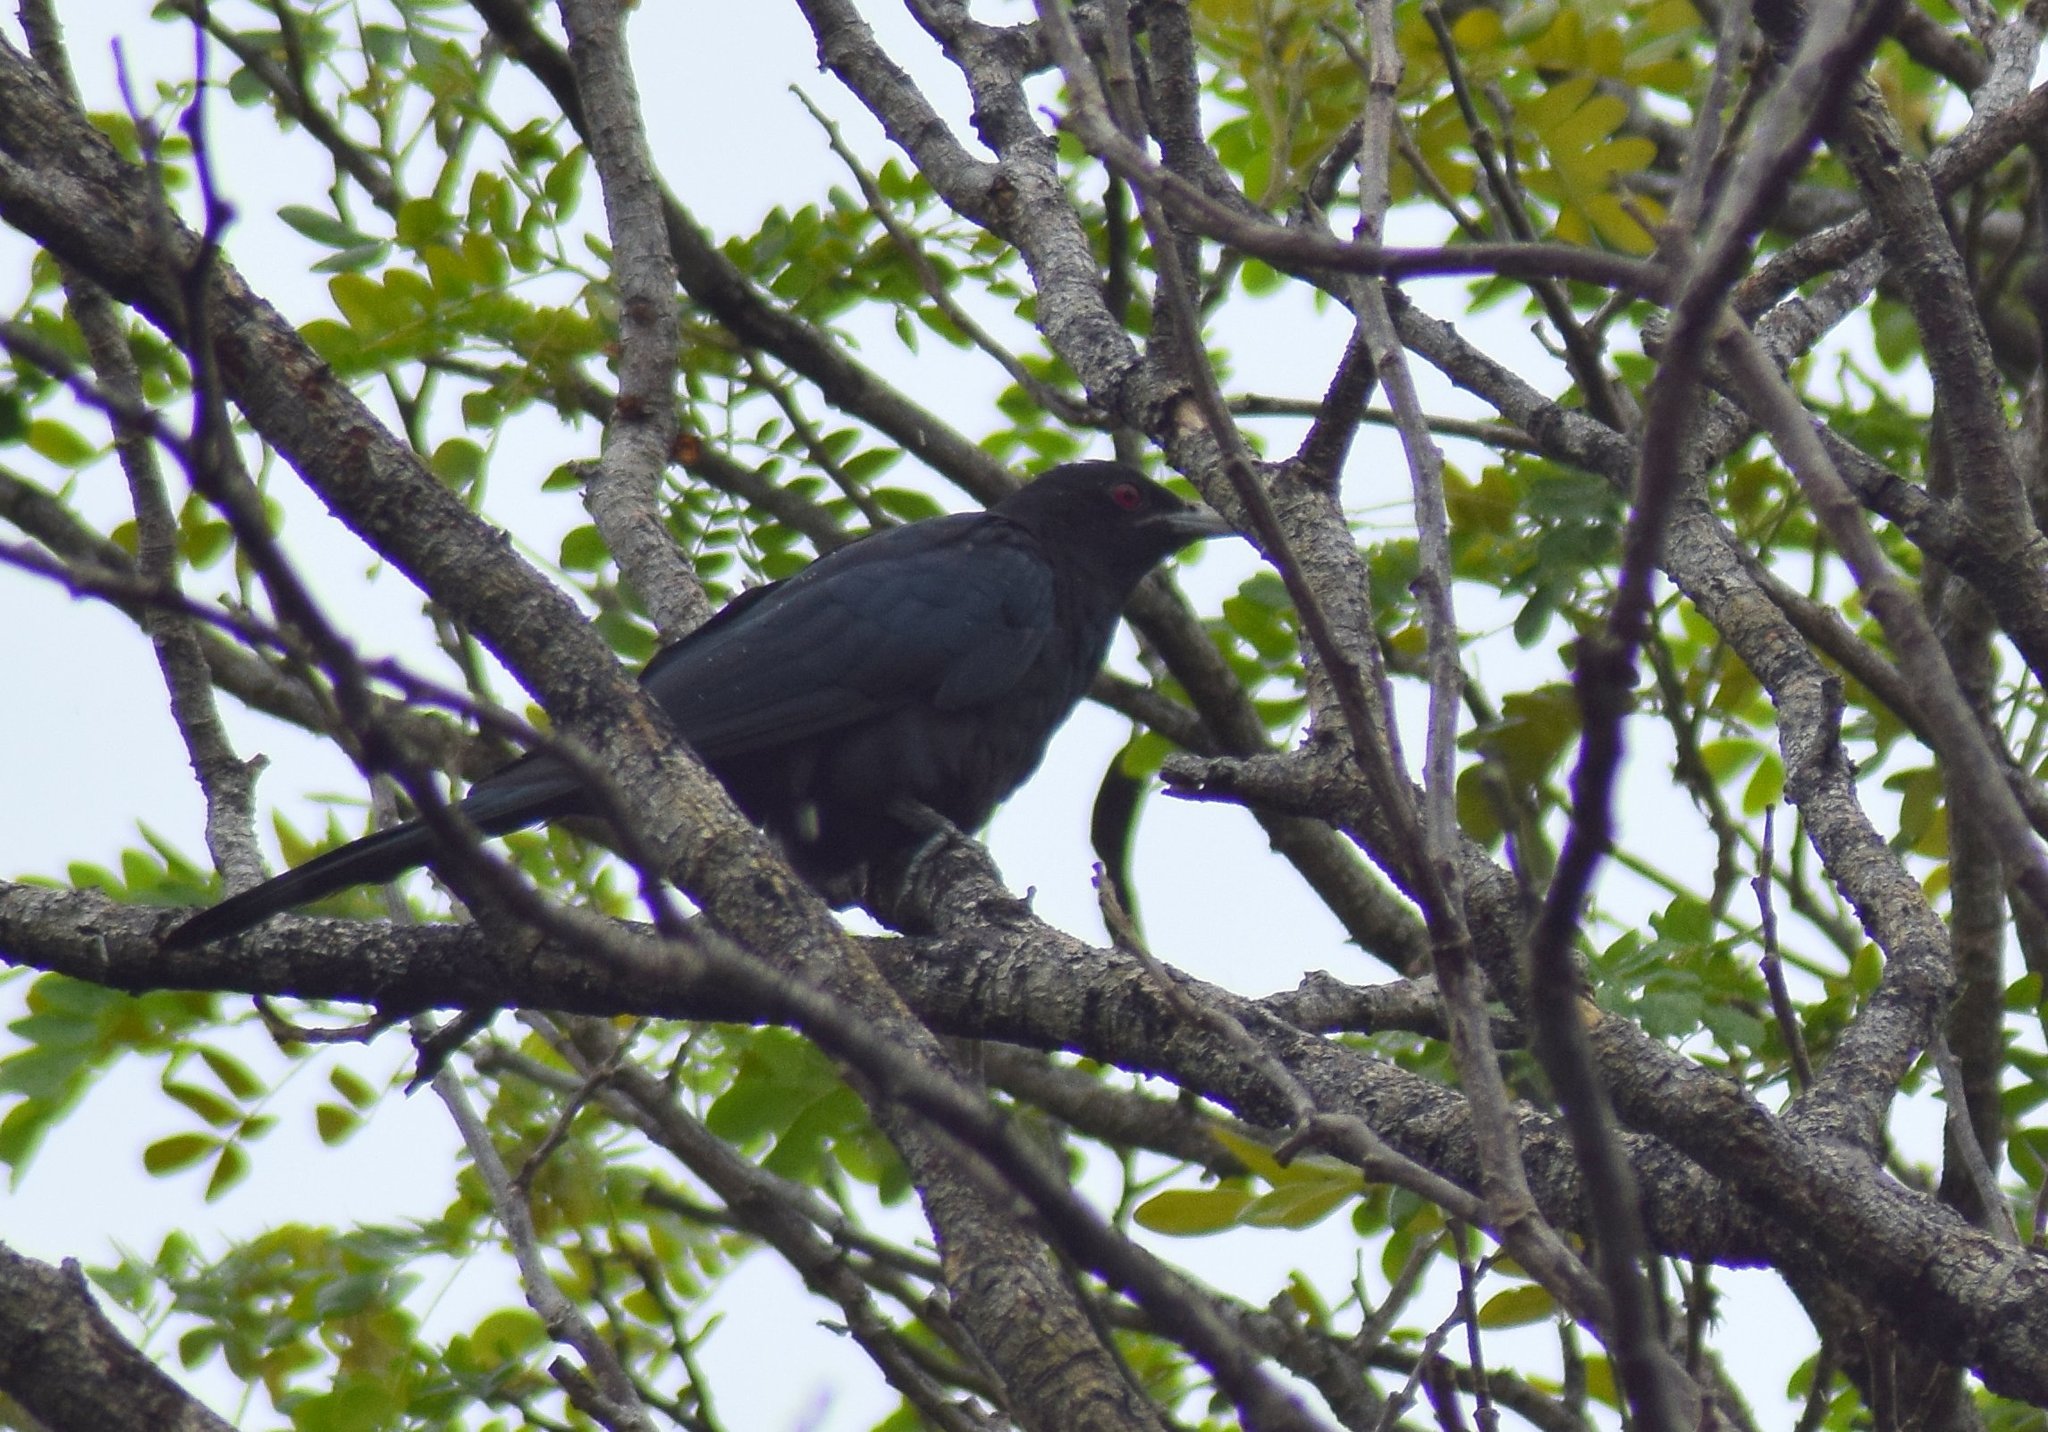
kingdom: Animalia
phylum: Chordata
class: Aves
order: Cuculiformes
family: Cuculidae
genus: Eudynamys
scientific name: Eudynamys scolopaceus
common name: Asian koel
